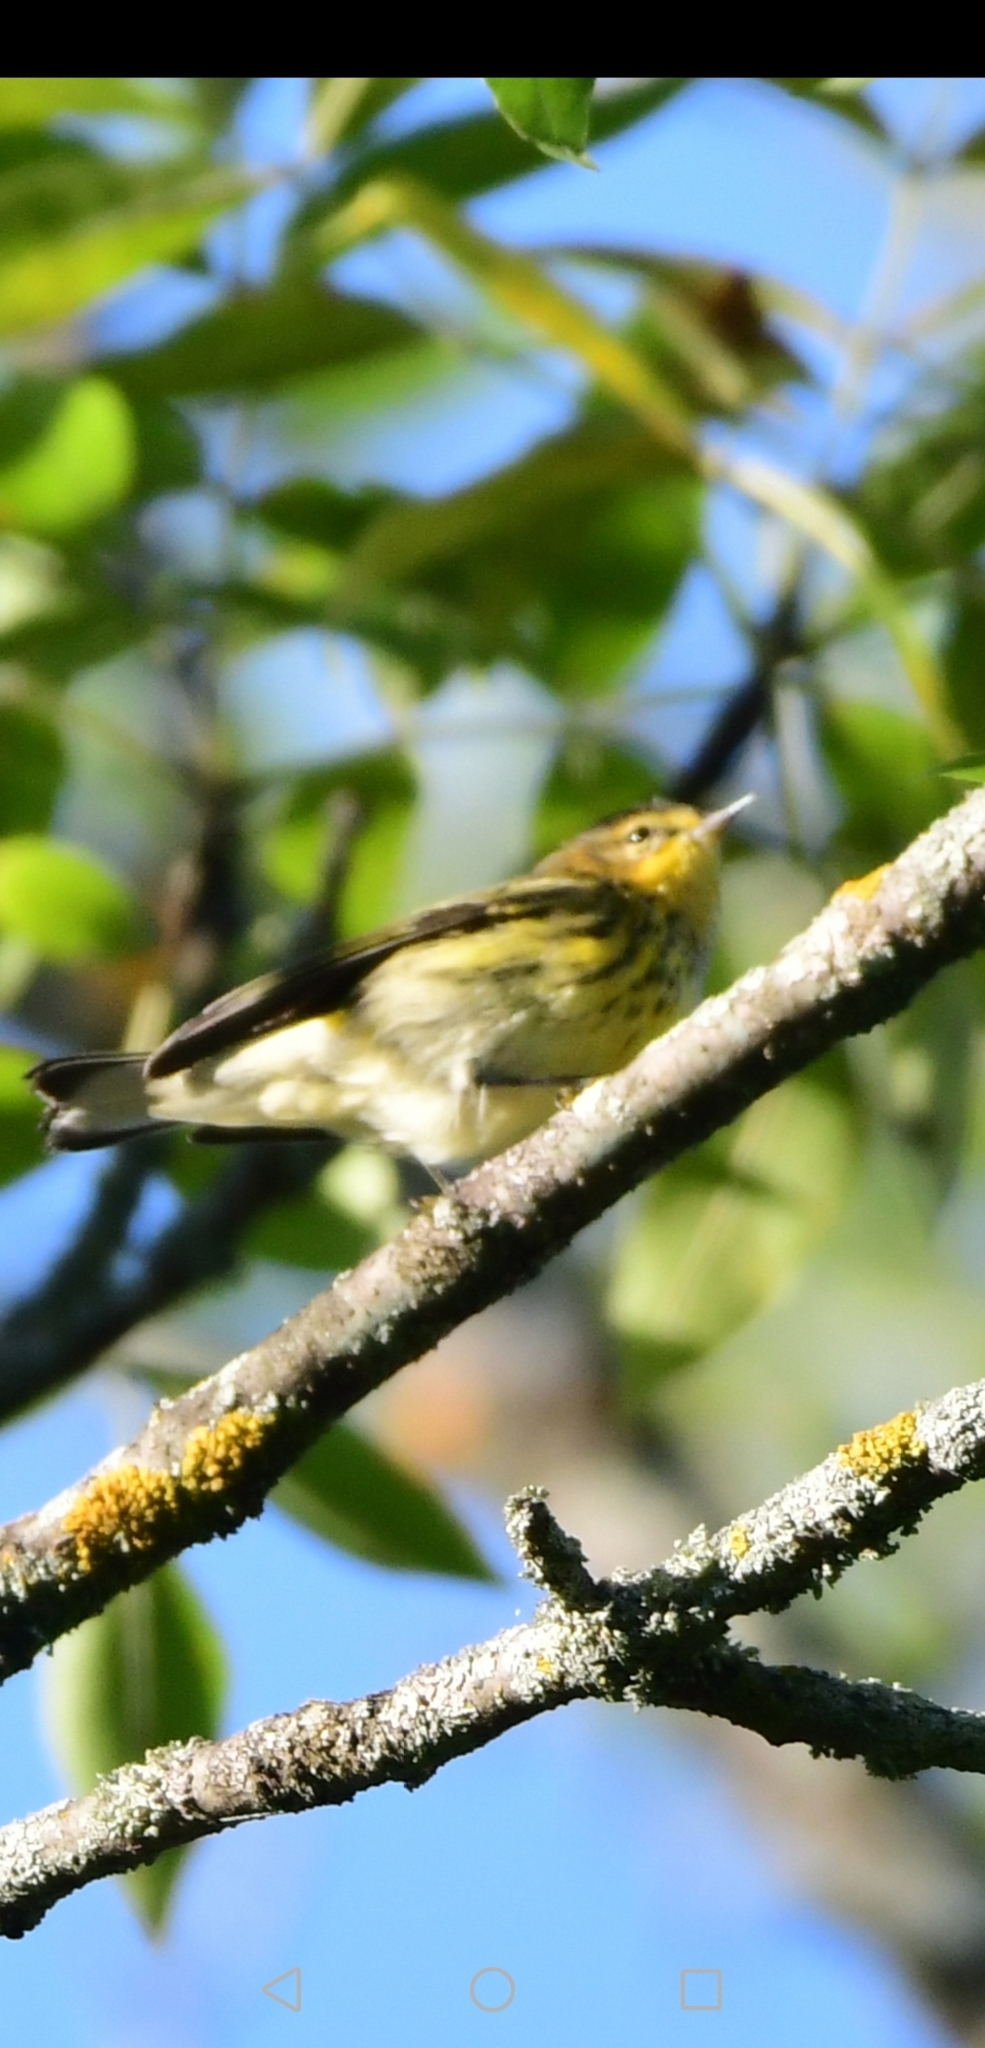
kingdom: Animalia
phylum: Chordata
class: Aves
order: Passeriformes
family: Parulidae
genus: Setophaga
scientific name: Setophaga tigrina
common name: Cape may warbler
